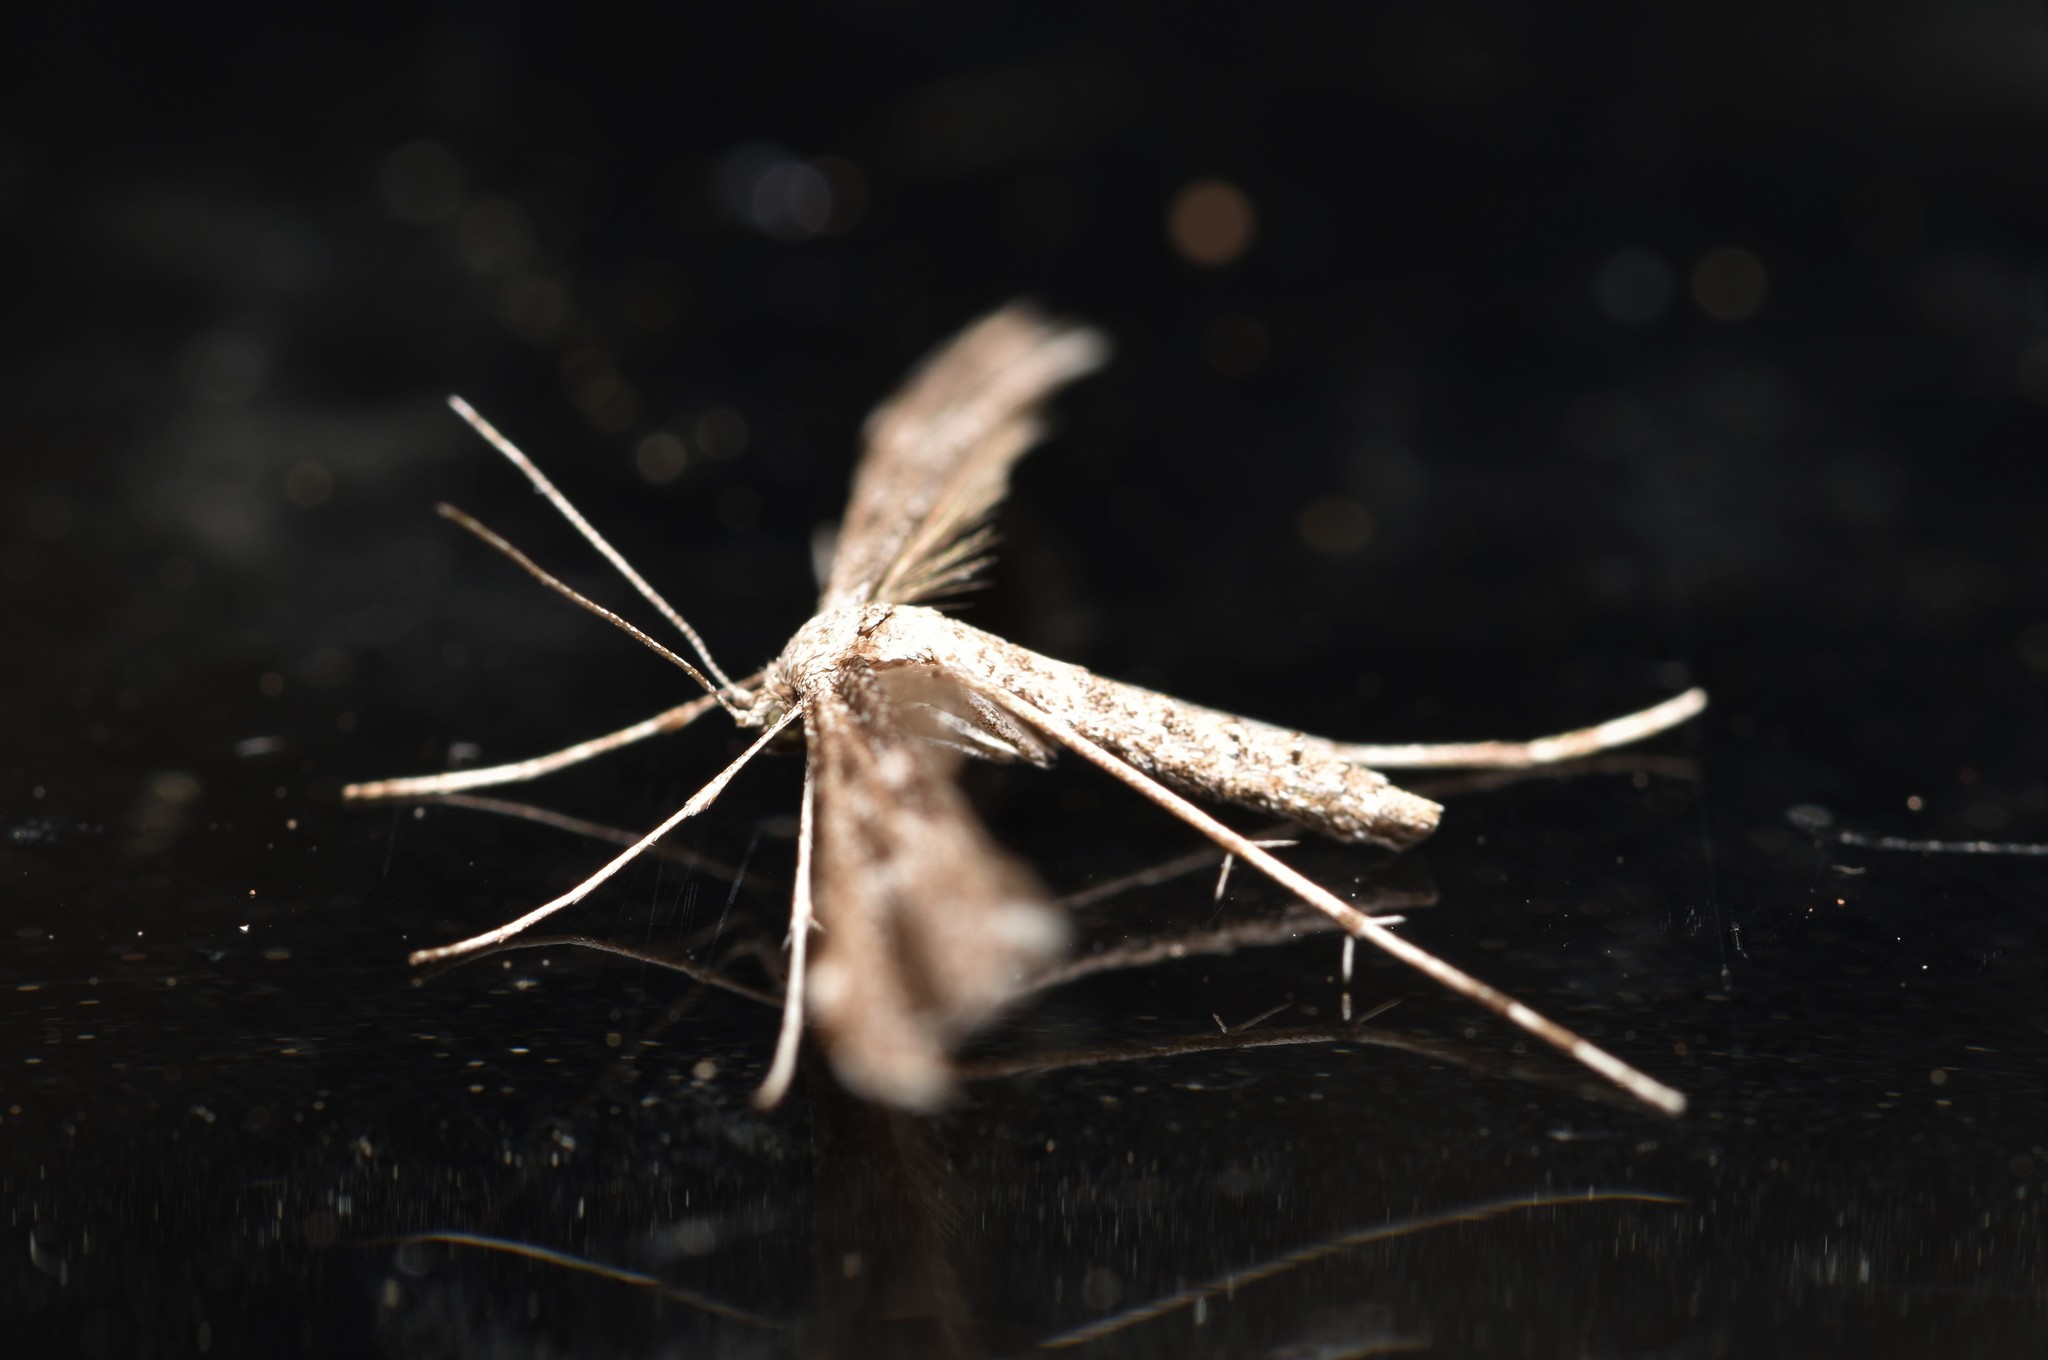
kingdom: Animalia
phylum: Arthropoda
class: Insecta
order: Lepidoptera
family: Pterophoridae
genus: Hellinsia
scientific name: Hellinsia inquinatus
